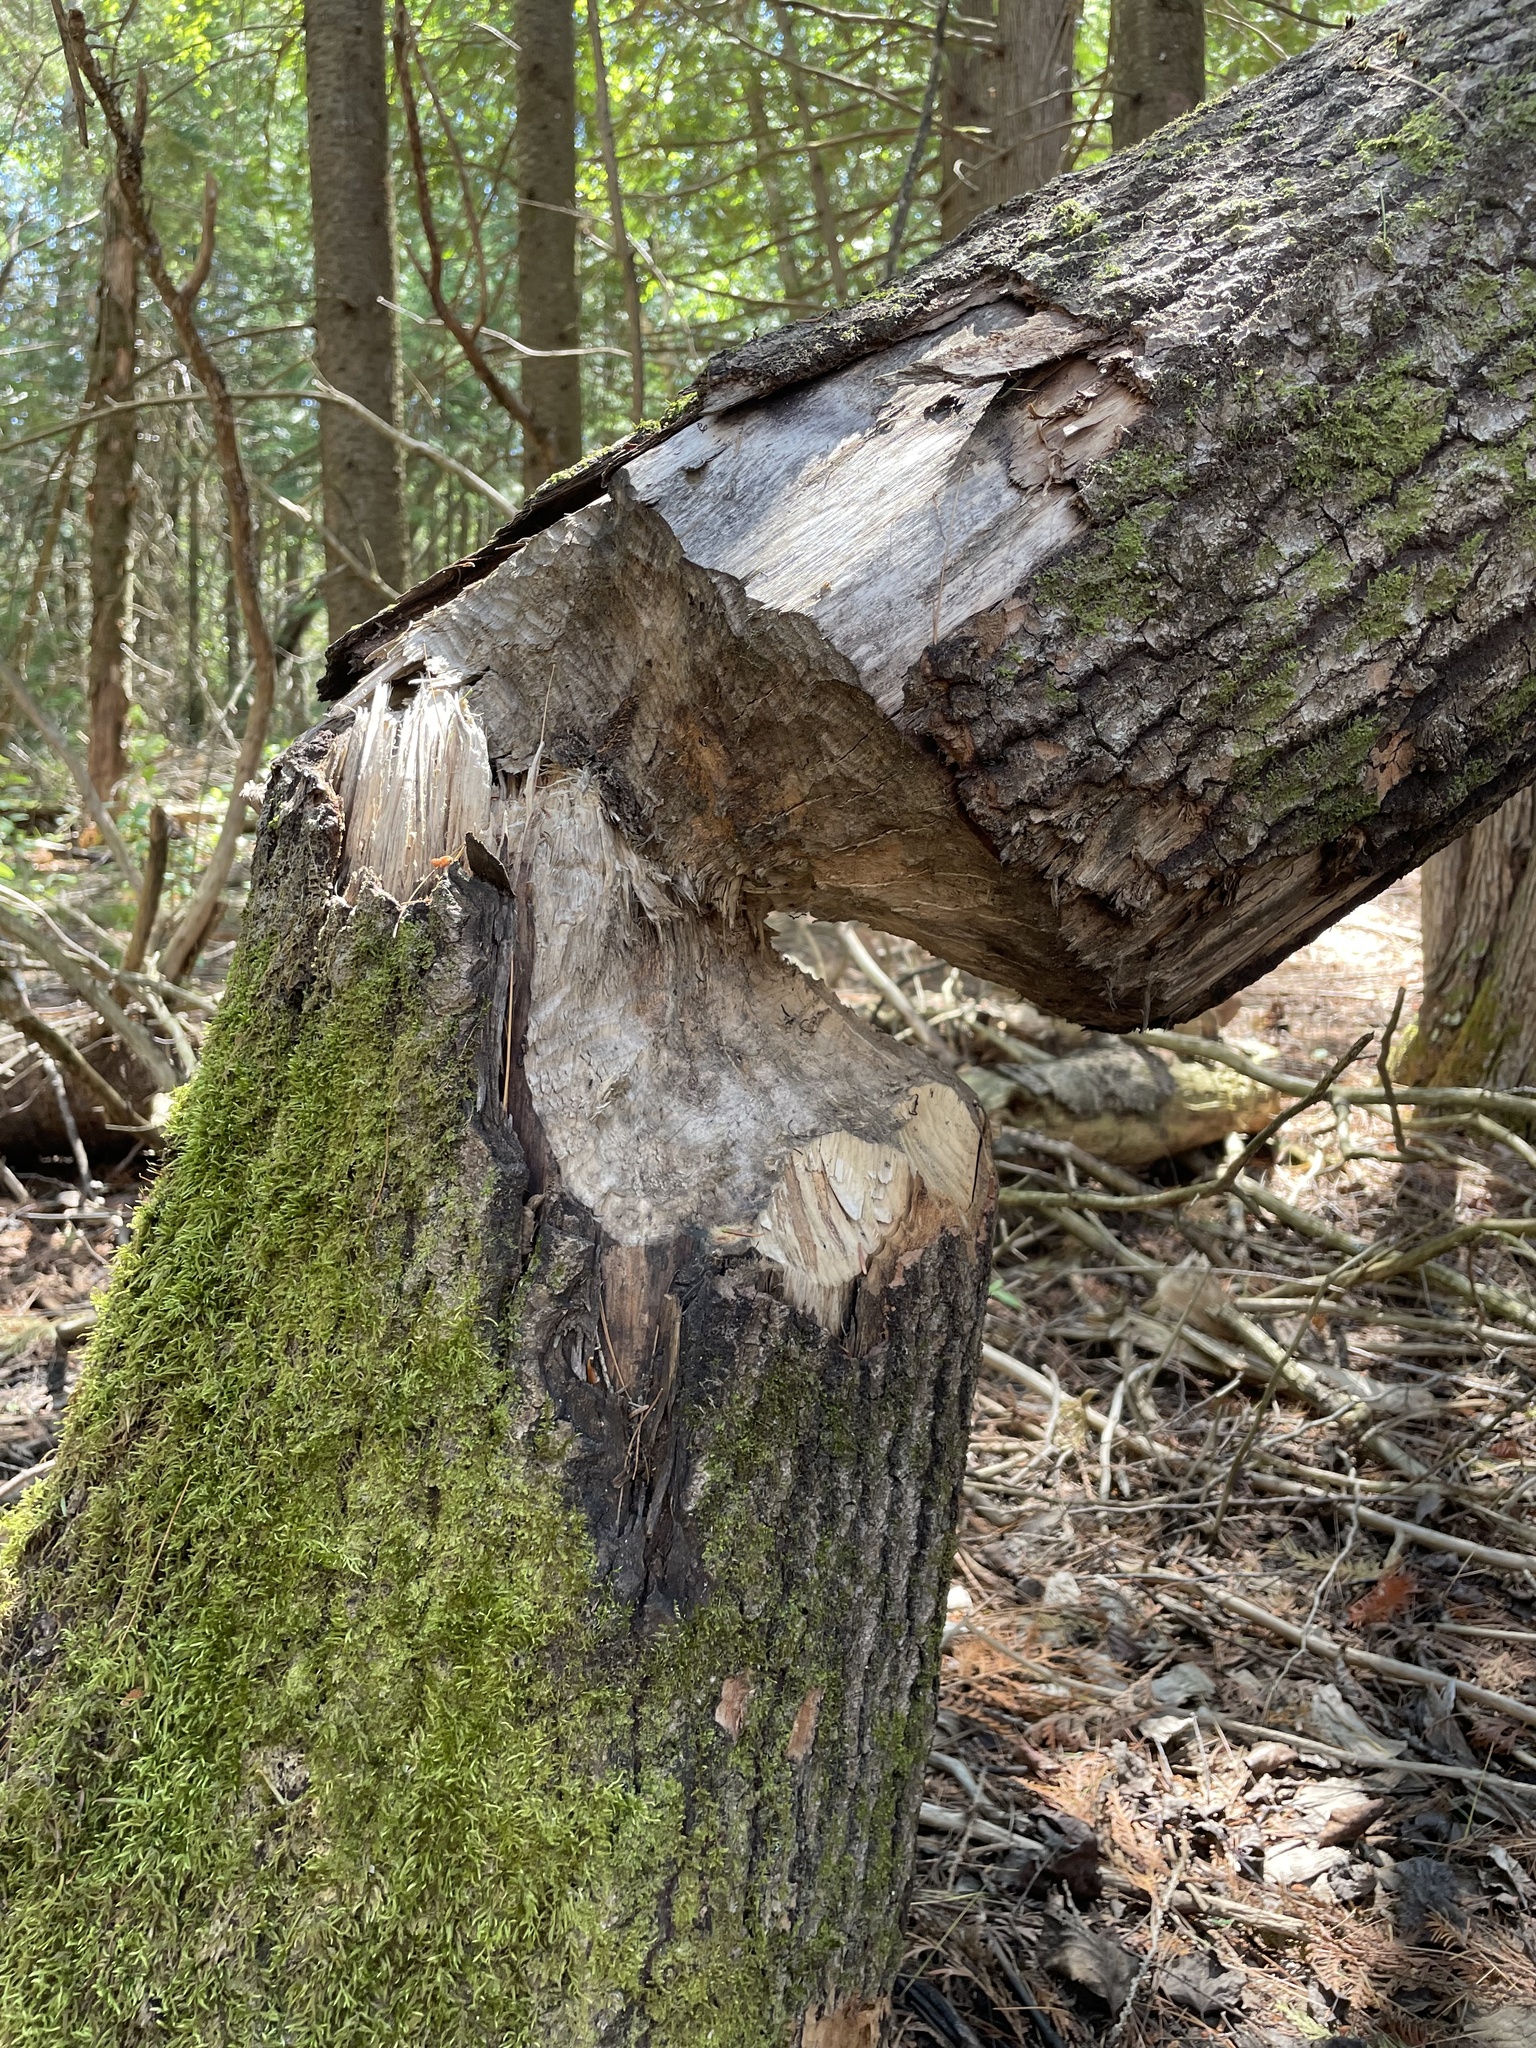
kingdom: Animalia
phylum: Chordata
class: Mammalia
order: Rodentia
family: Castoridae
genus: Castor
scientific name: Castor canadensis
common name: American beaver
